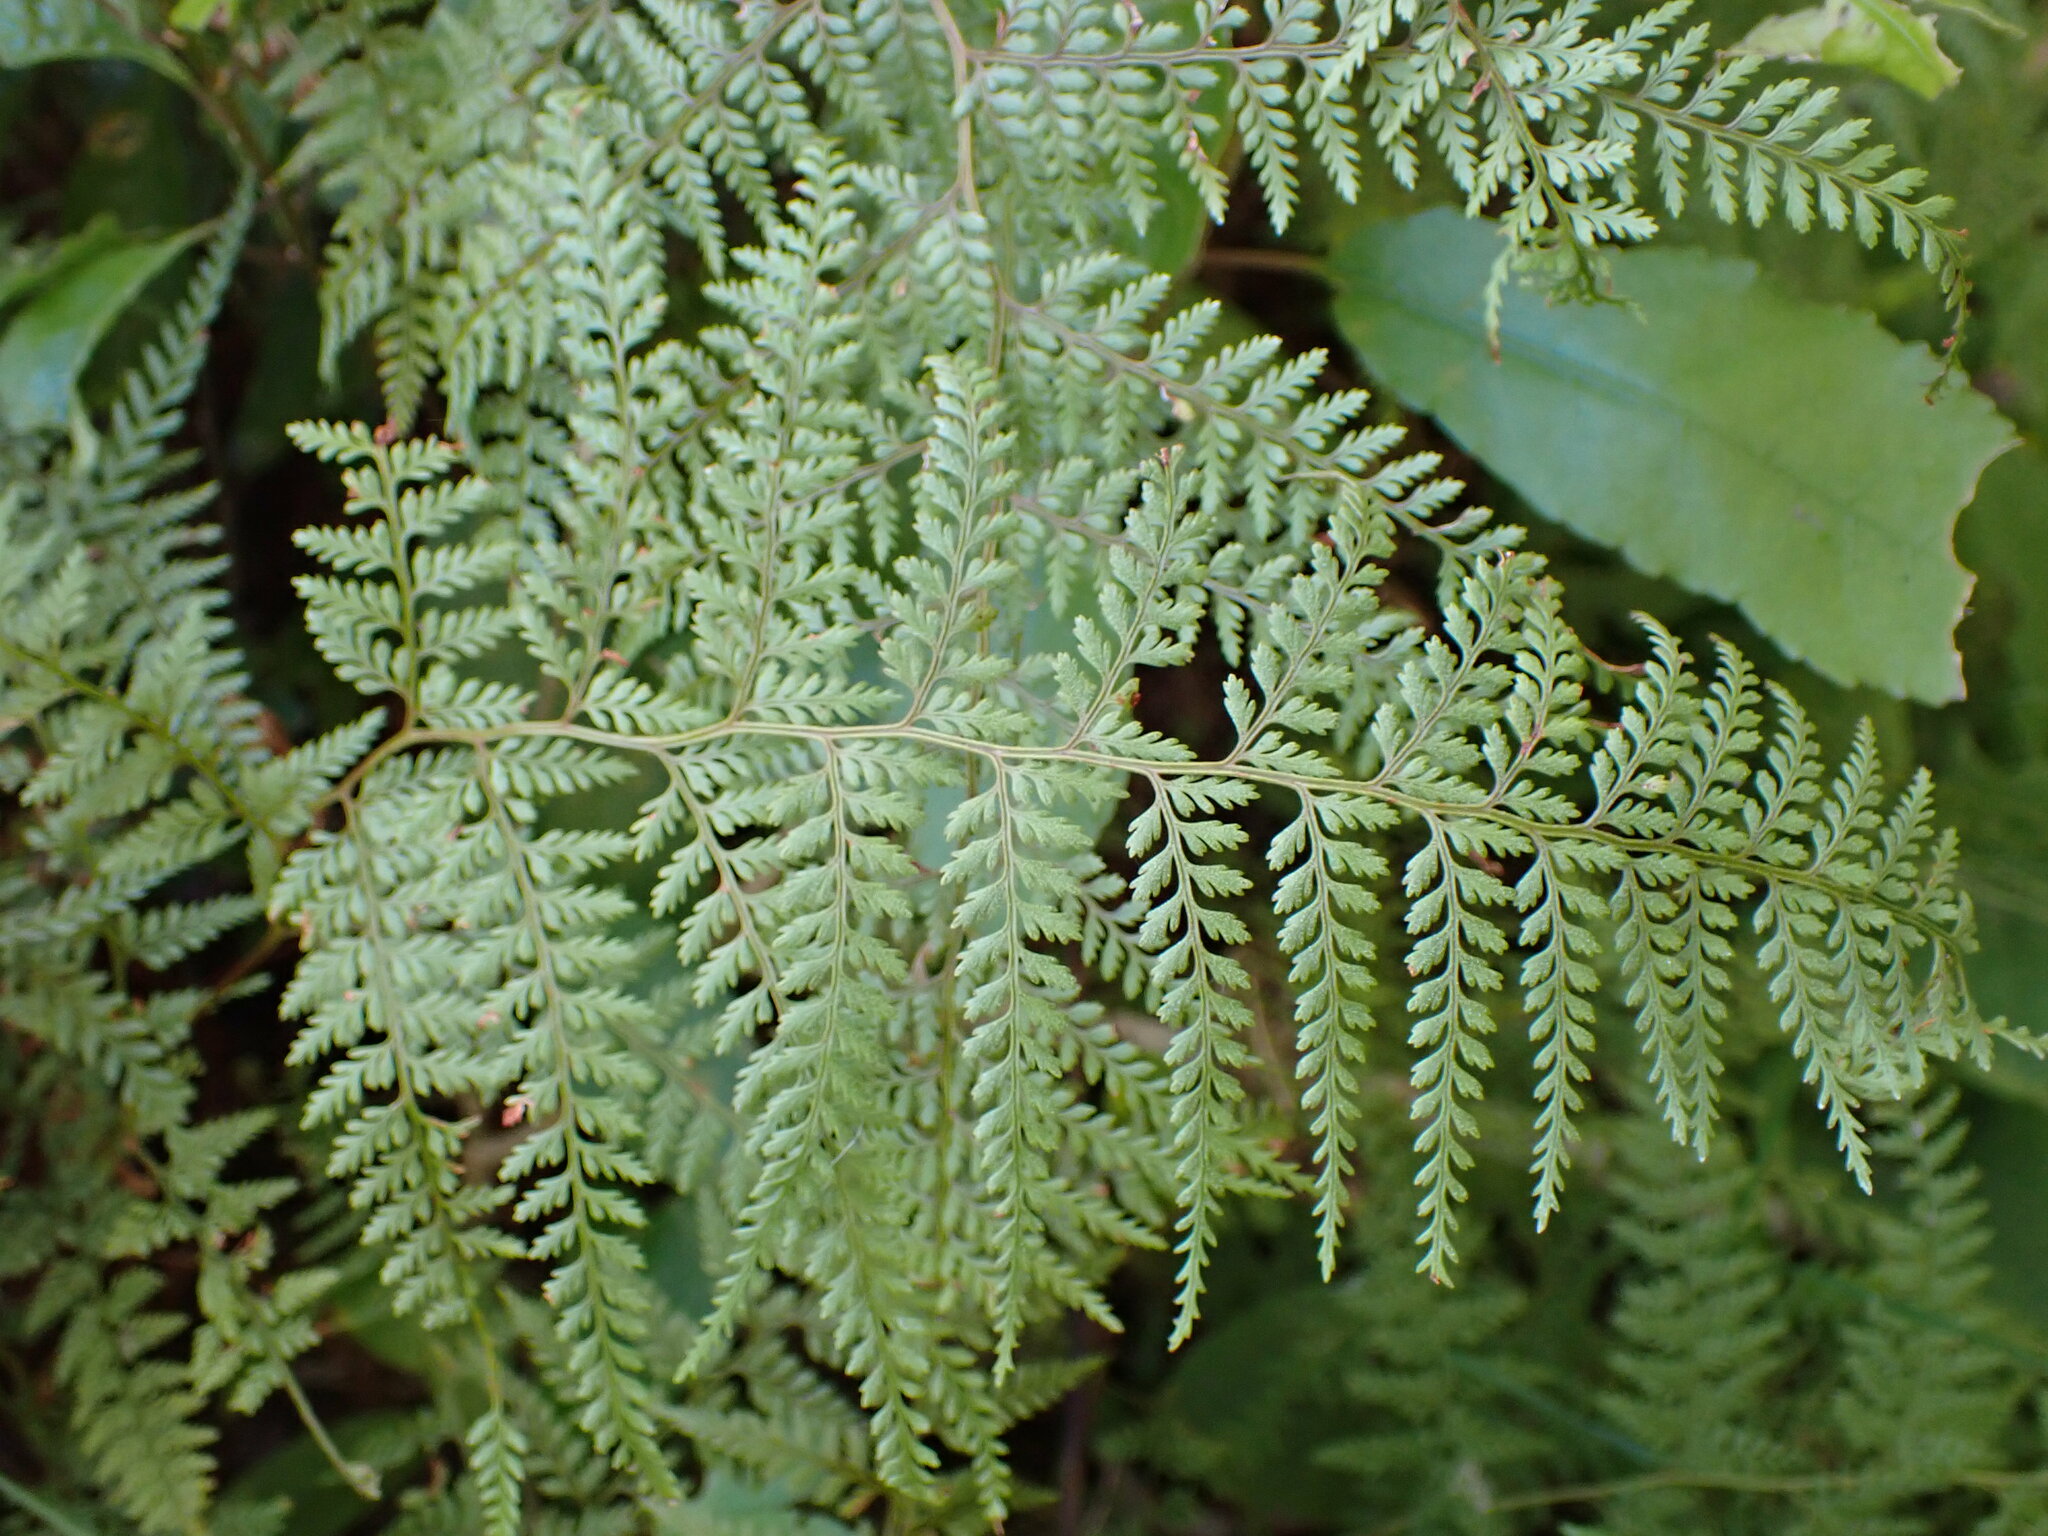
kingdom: Plantae
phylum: Tracheophyta
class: Polypodiopsida
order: Polypodiales
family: Dennstaedtiaceae
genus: Paesia
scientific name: Paesia scaberula
